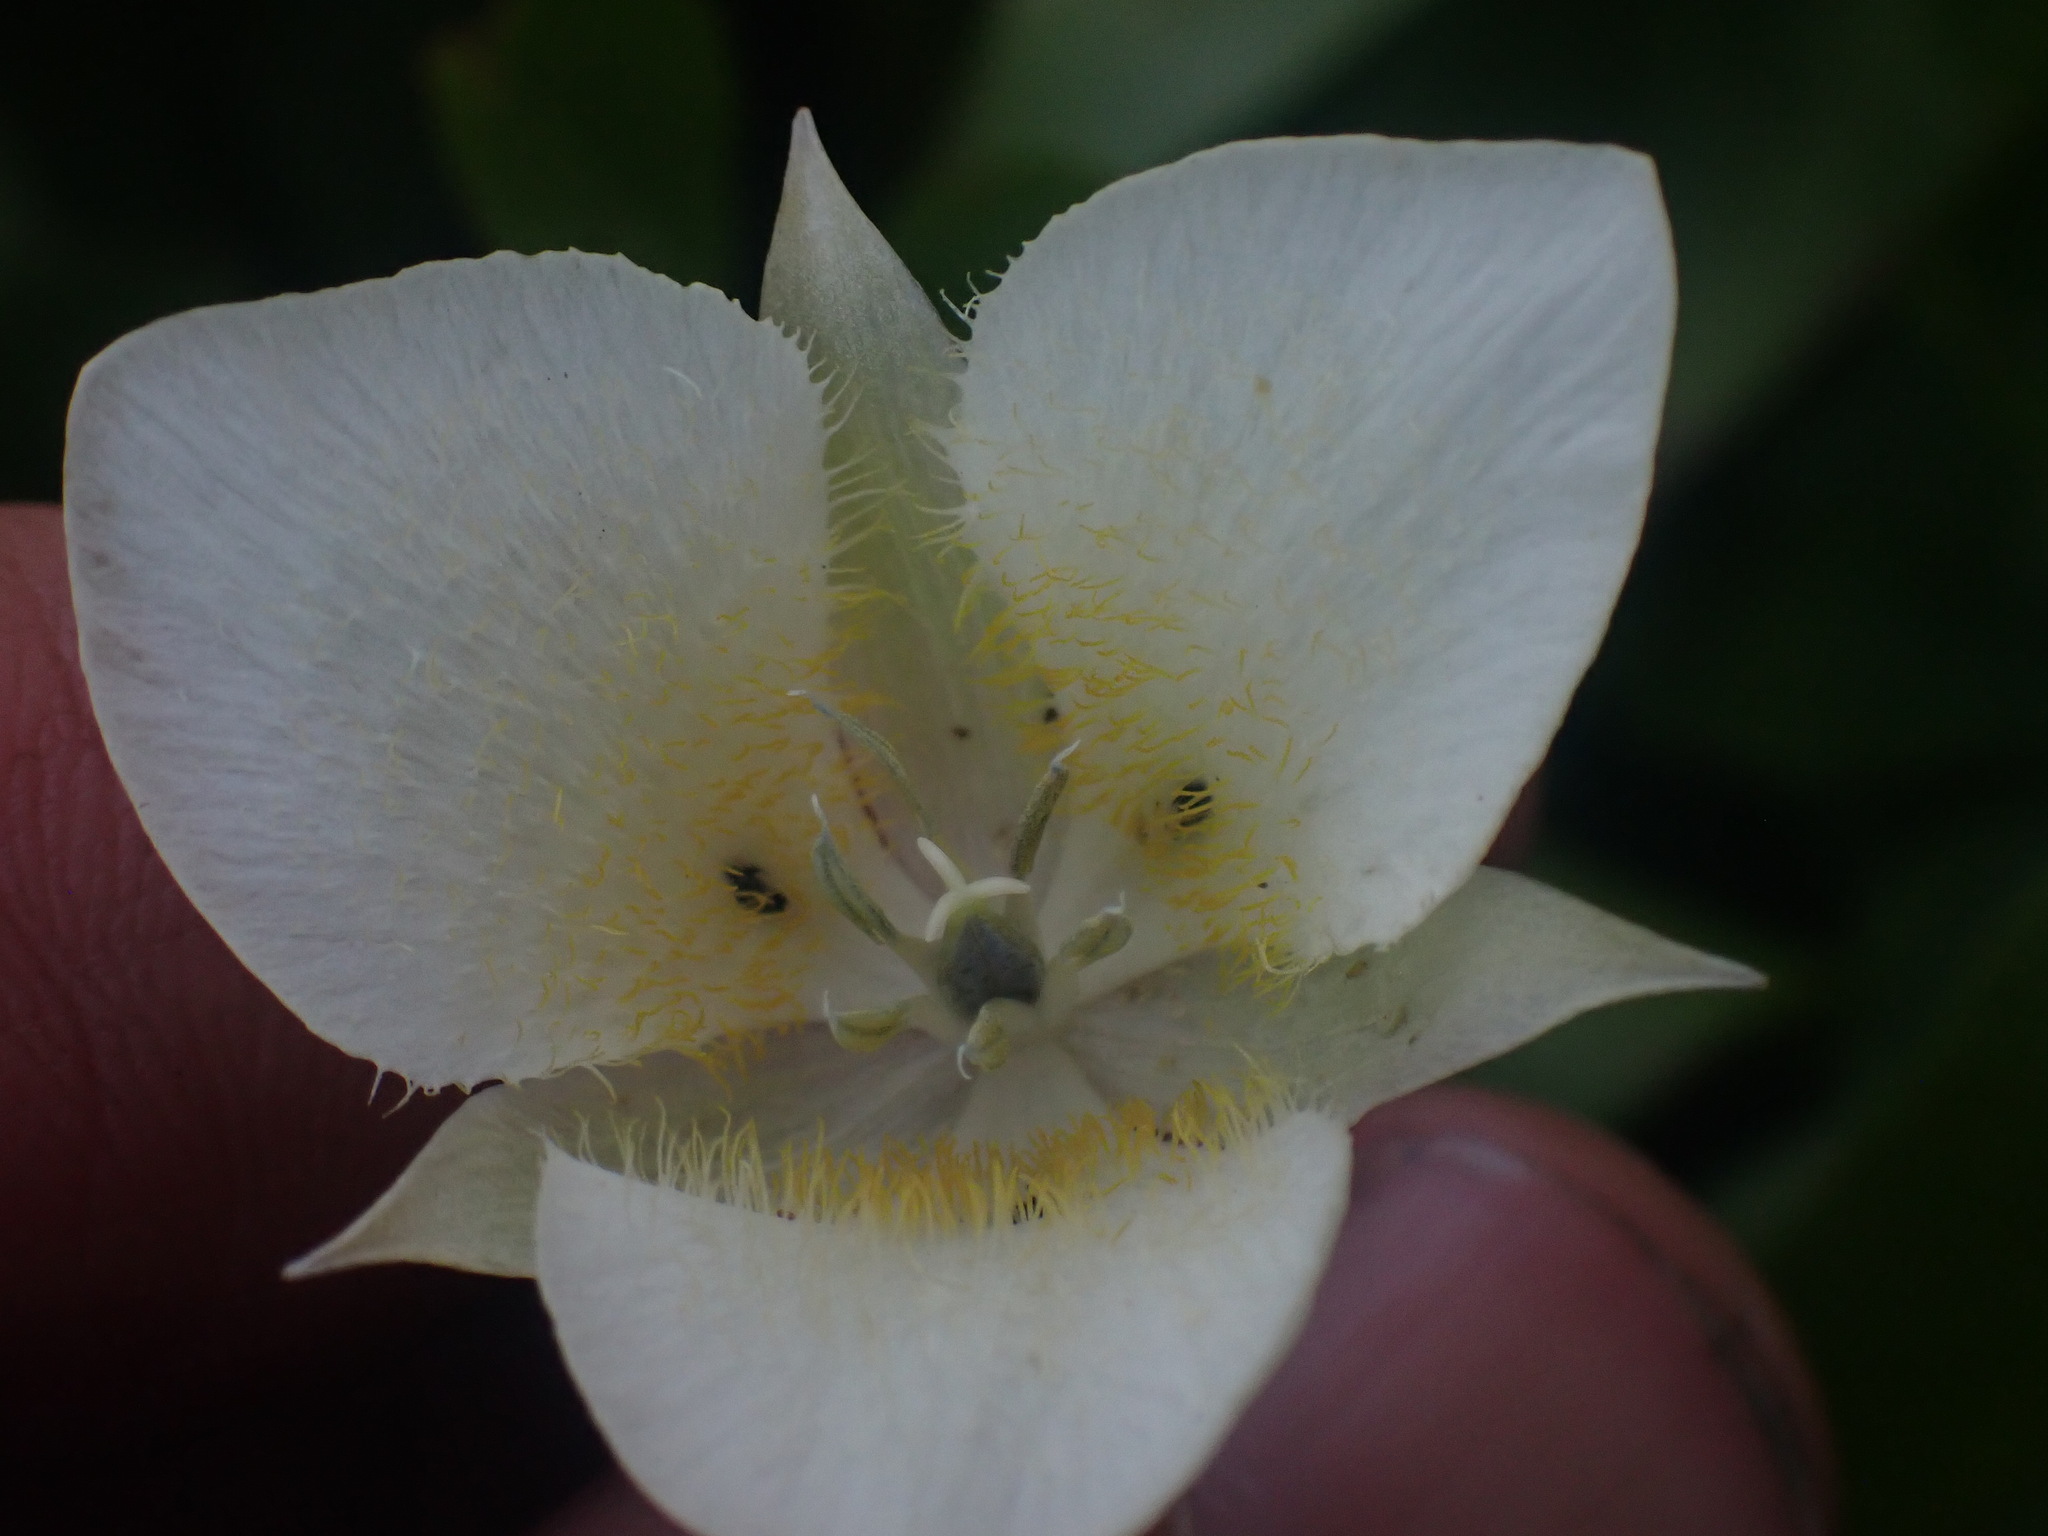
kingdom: Plantae
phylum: Tracheophyta
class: Liliopsida
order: Liliales
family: Liliaceae
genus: Calochortus
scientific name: Calochortus apiculatus
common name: Baker's mariposa lily
